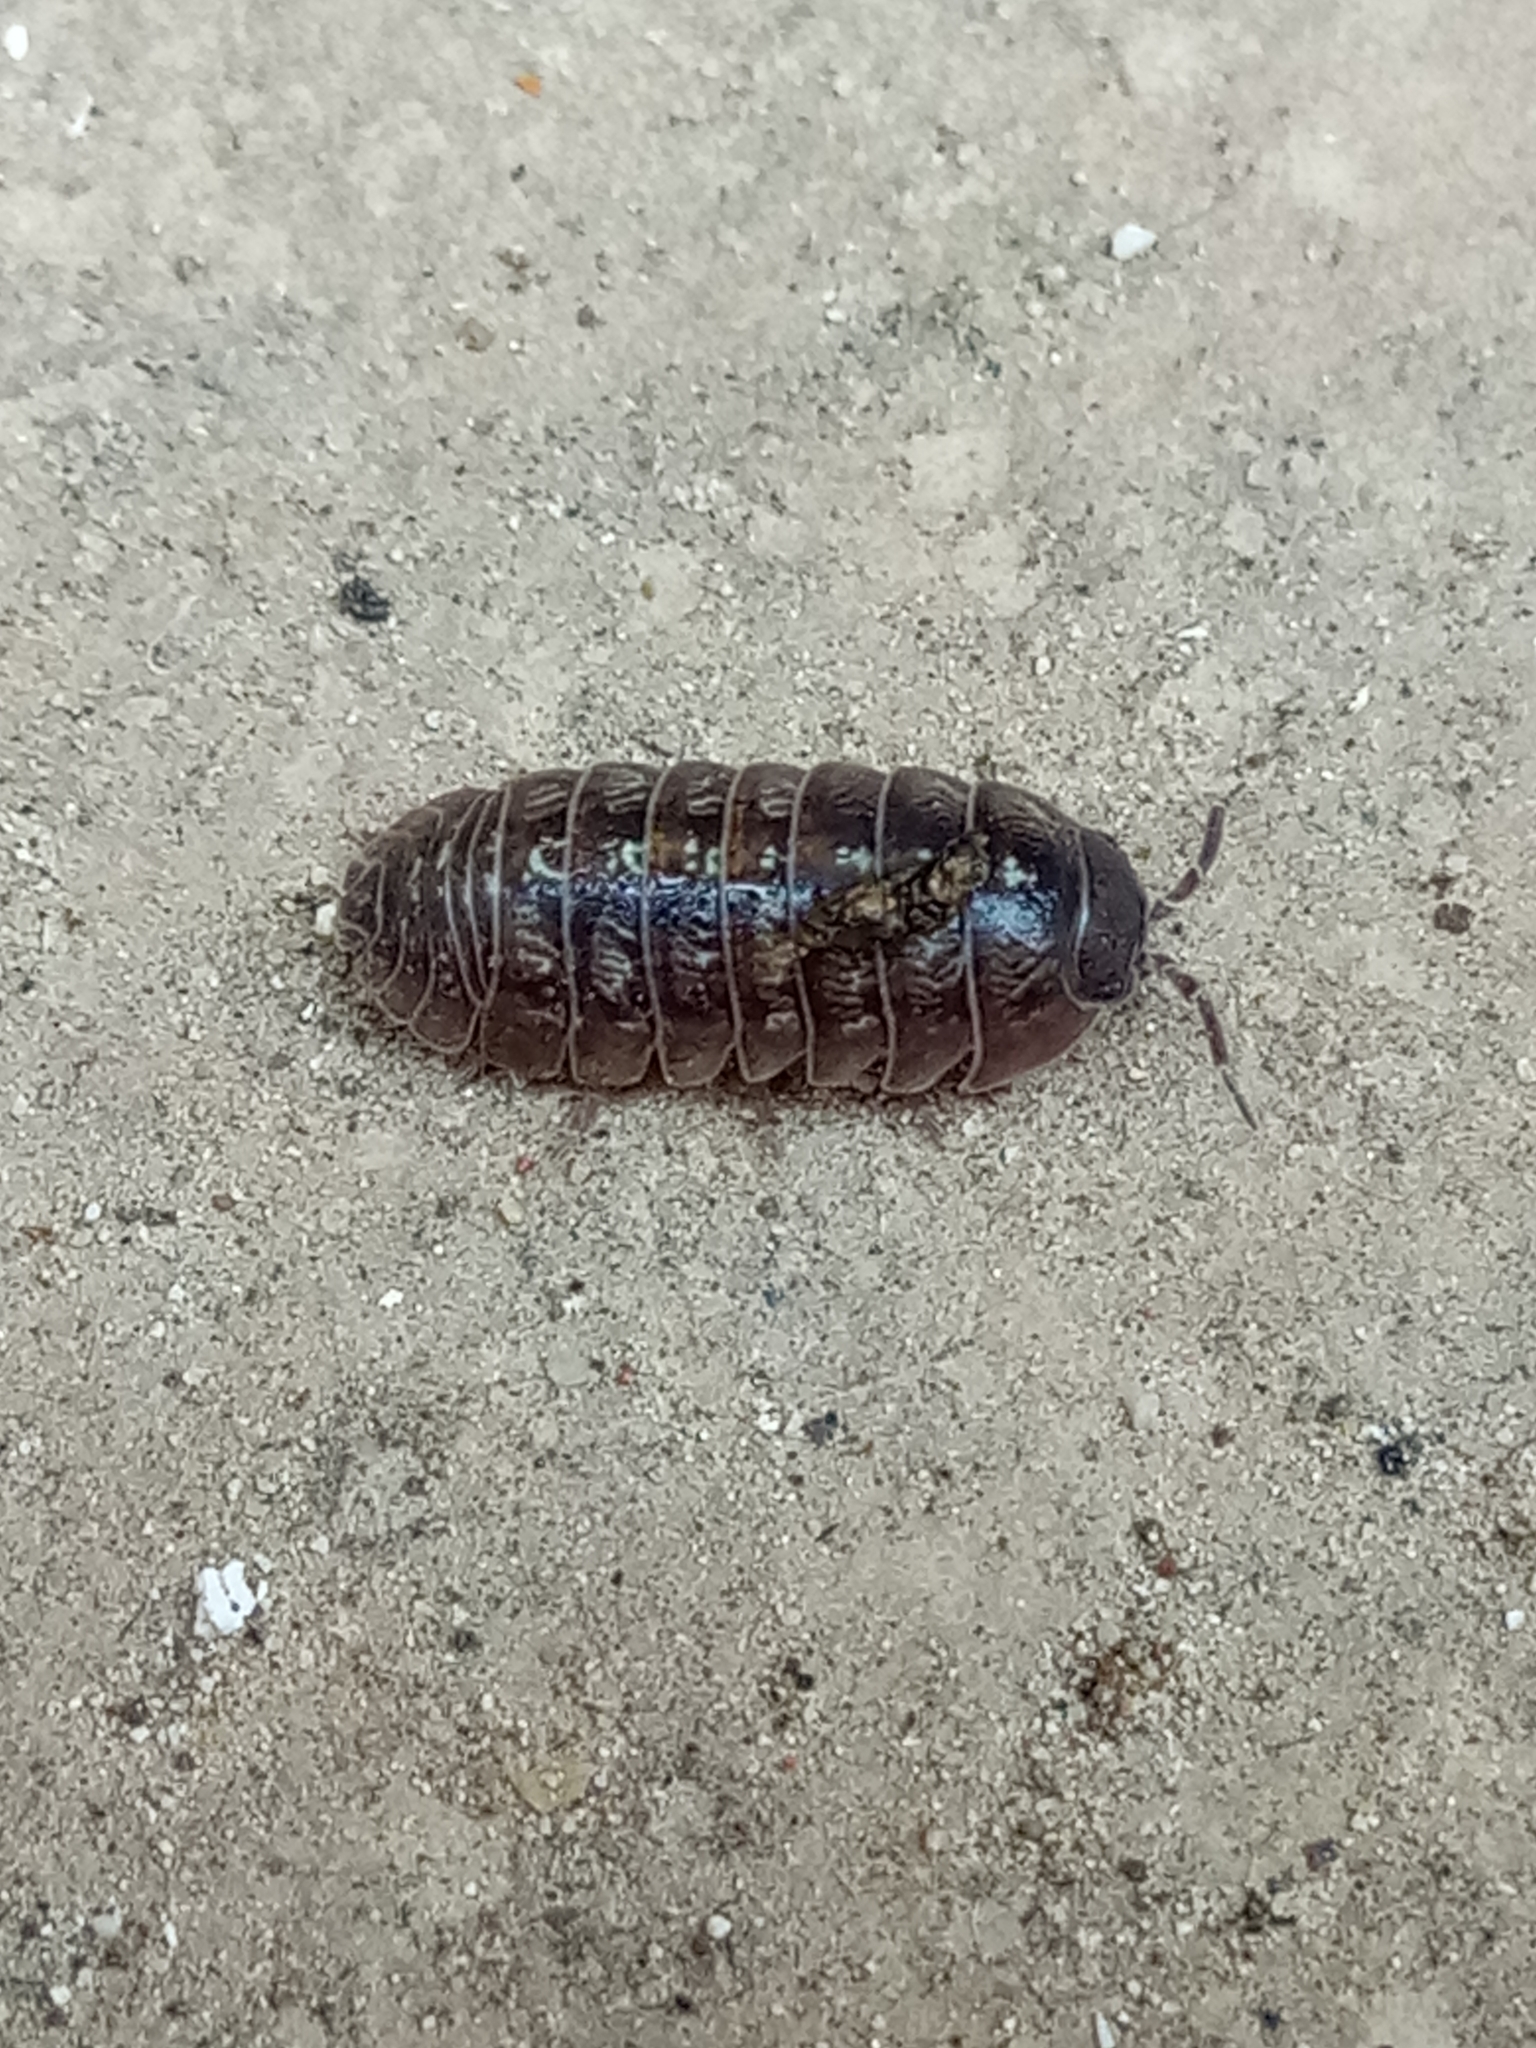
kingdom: Animalia
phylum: Arthropoda
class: Malacostraca
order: Isopoda
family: Armadillidiidae
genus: Armadillidium
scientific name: Armadillidium vulgare
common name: Common pill woodlouse
